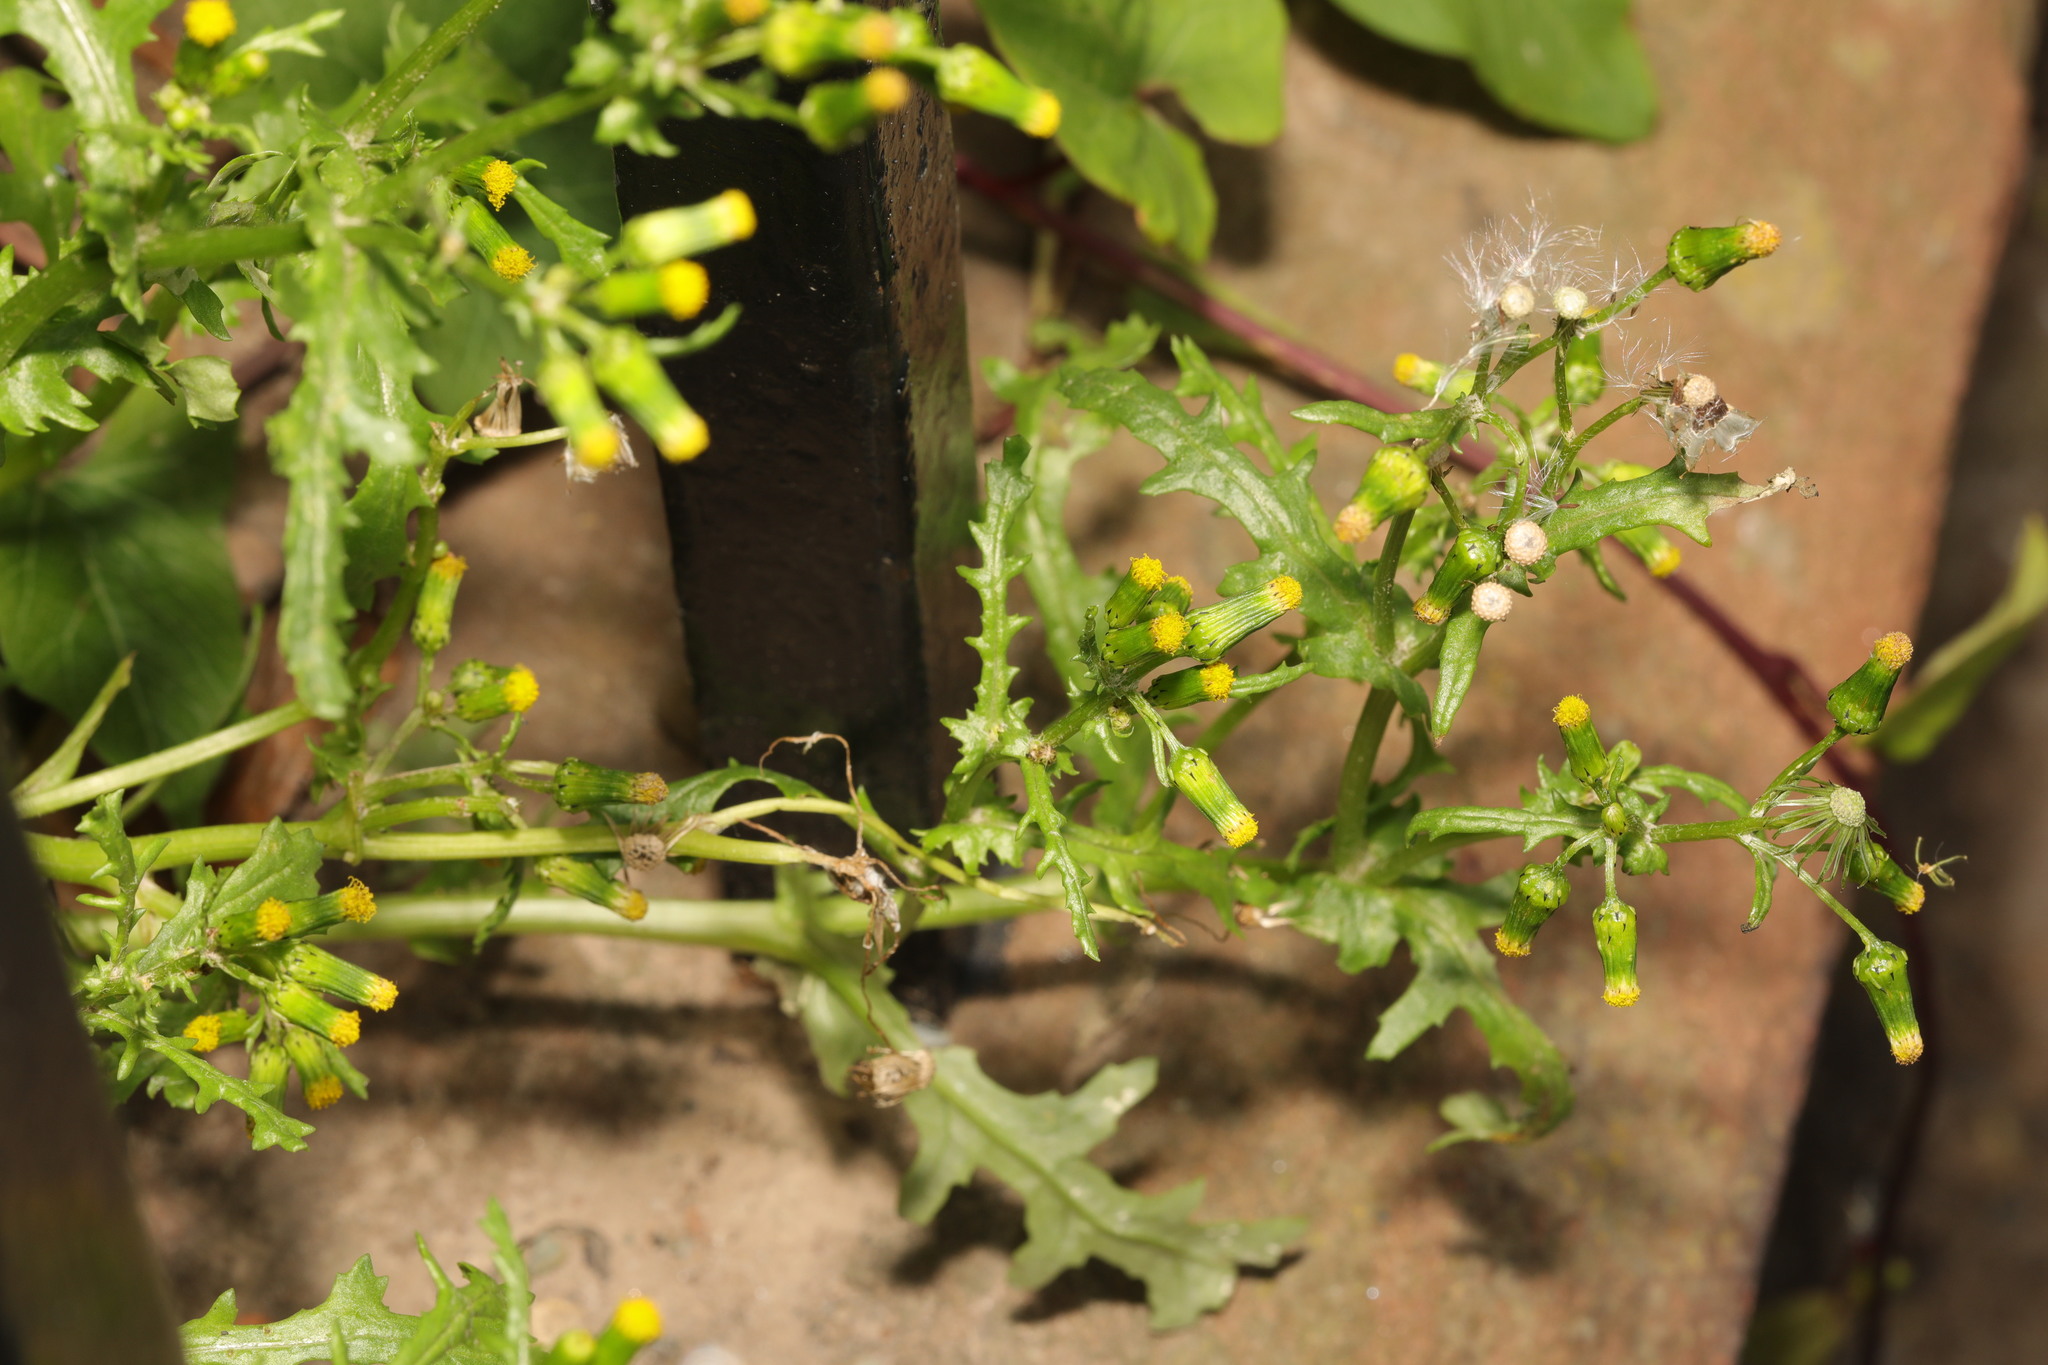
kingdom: Plantae
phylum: Tracheophyta
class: Magnoliopsida
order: Asterales
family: Asteraceae
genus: Senecio
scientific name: Senecio vulgaris
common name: Old-man-in-the-spring
